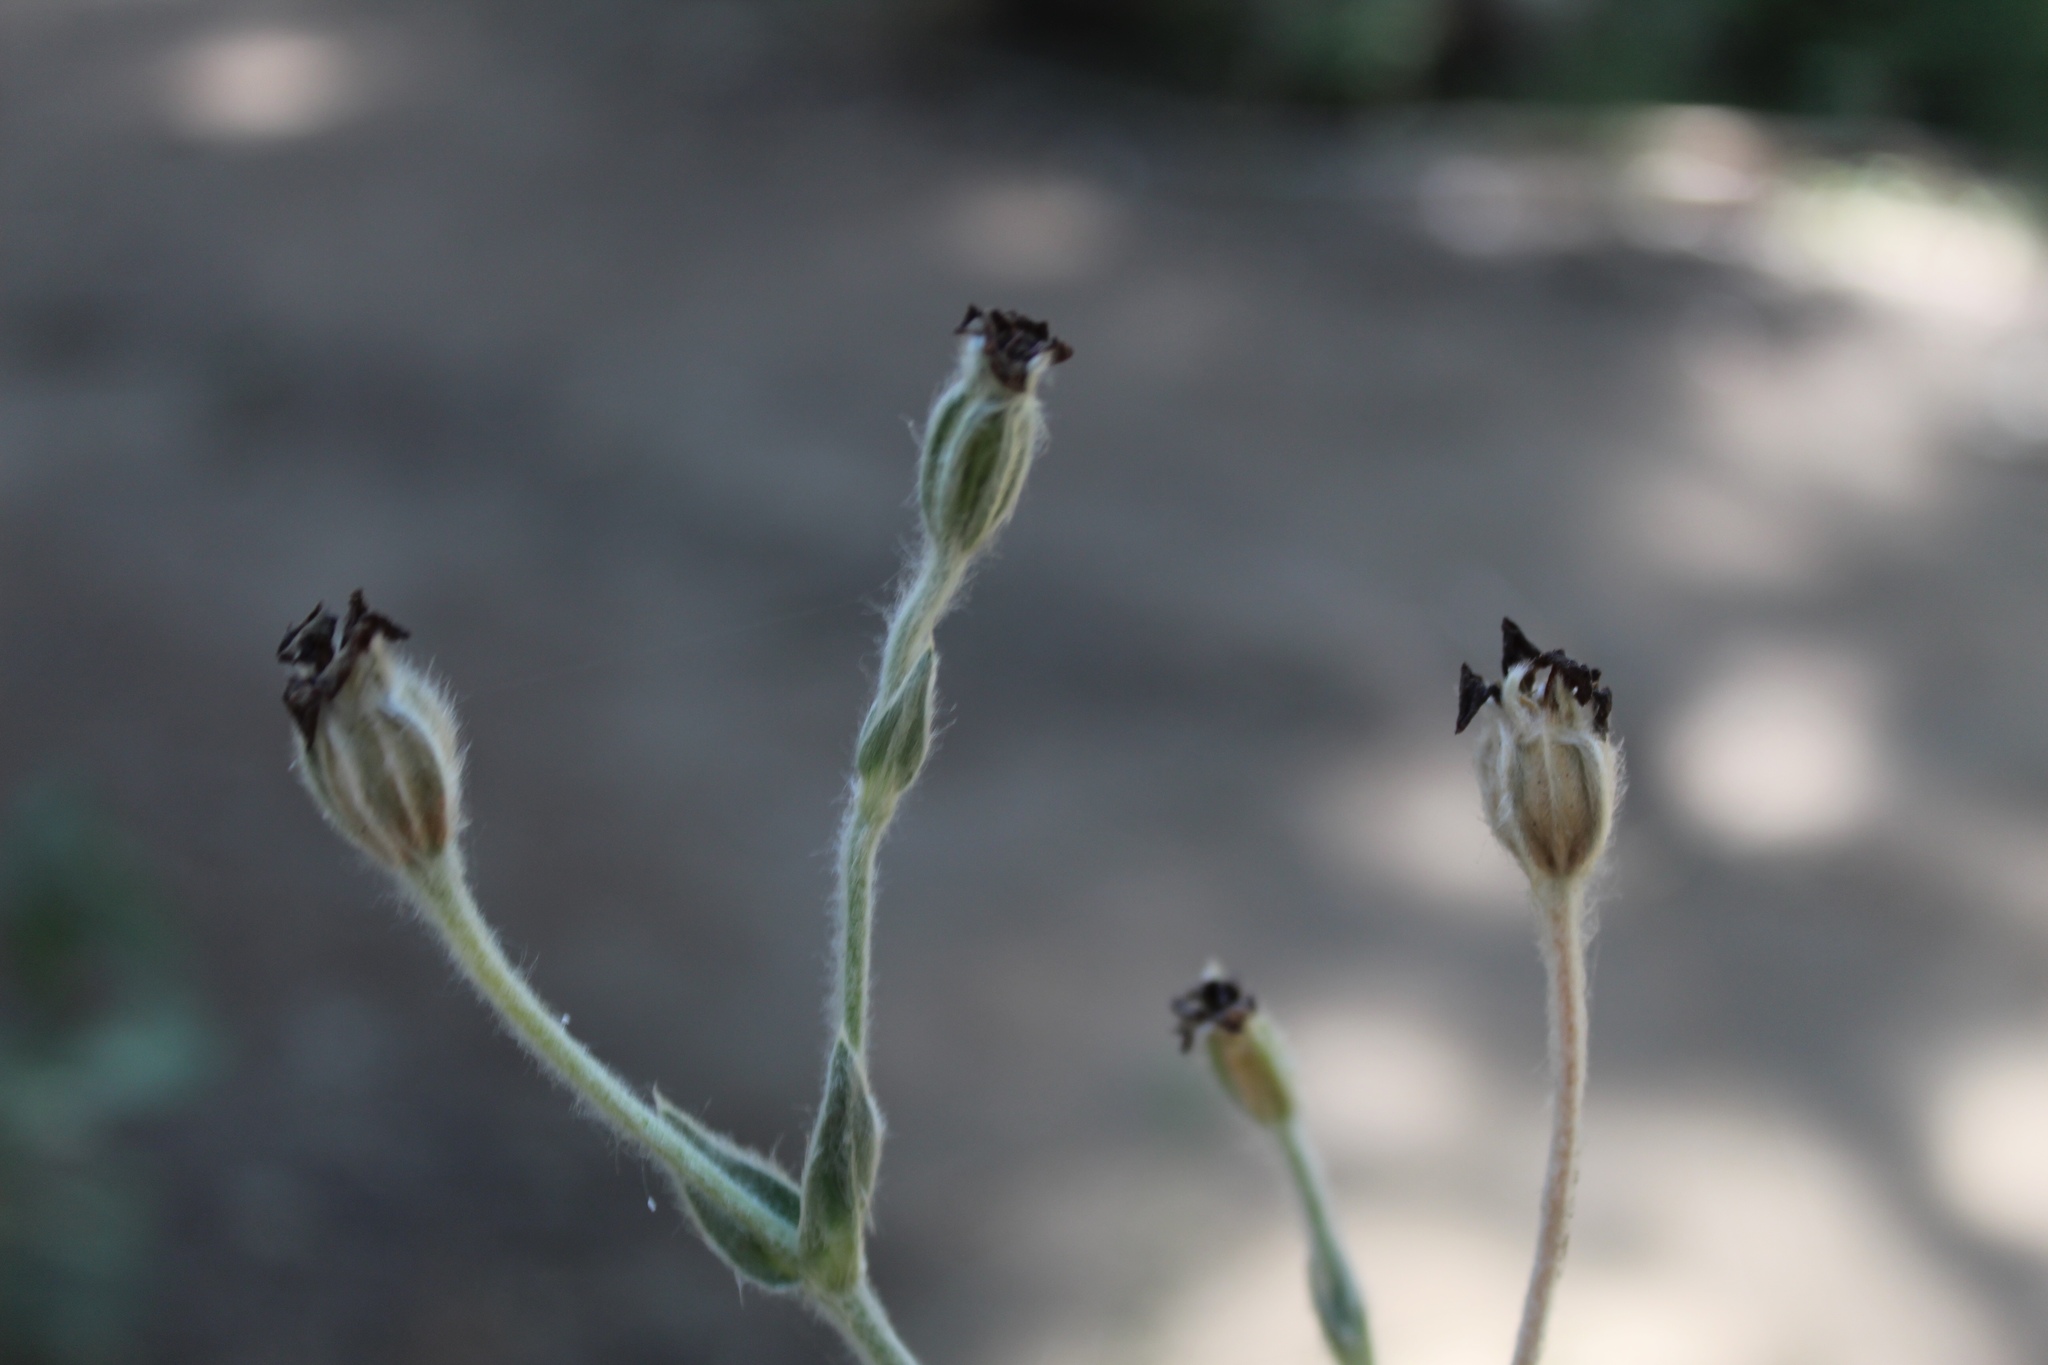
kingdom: Plantae
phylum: Tracheophyta
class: Magnoliopsida
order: Caryophyllales
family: Caryophyllaceae
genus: Silene
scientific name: Silene coronaria
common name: Rose campion
